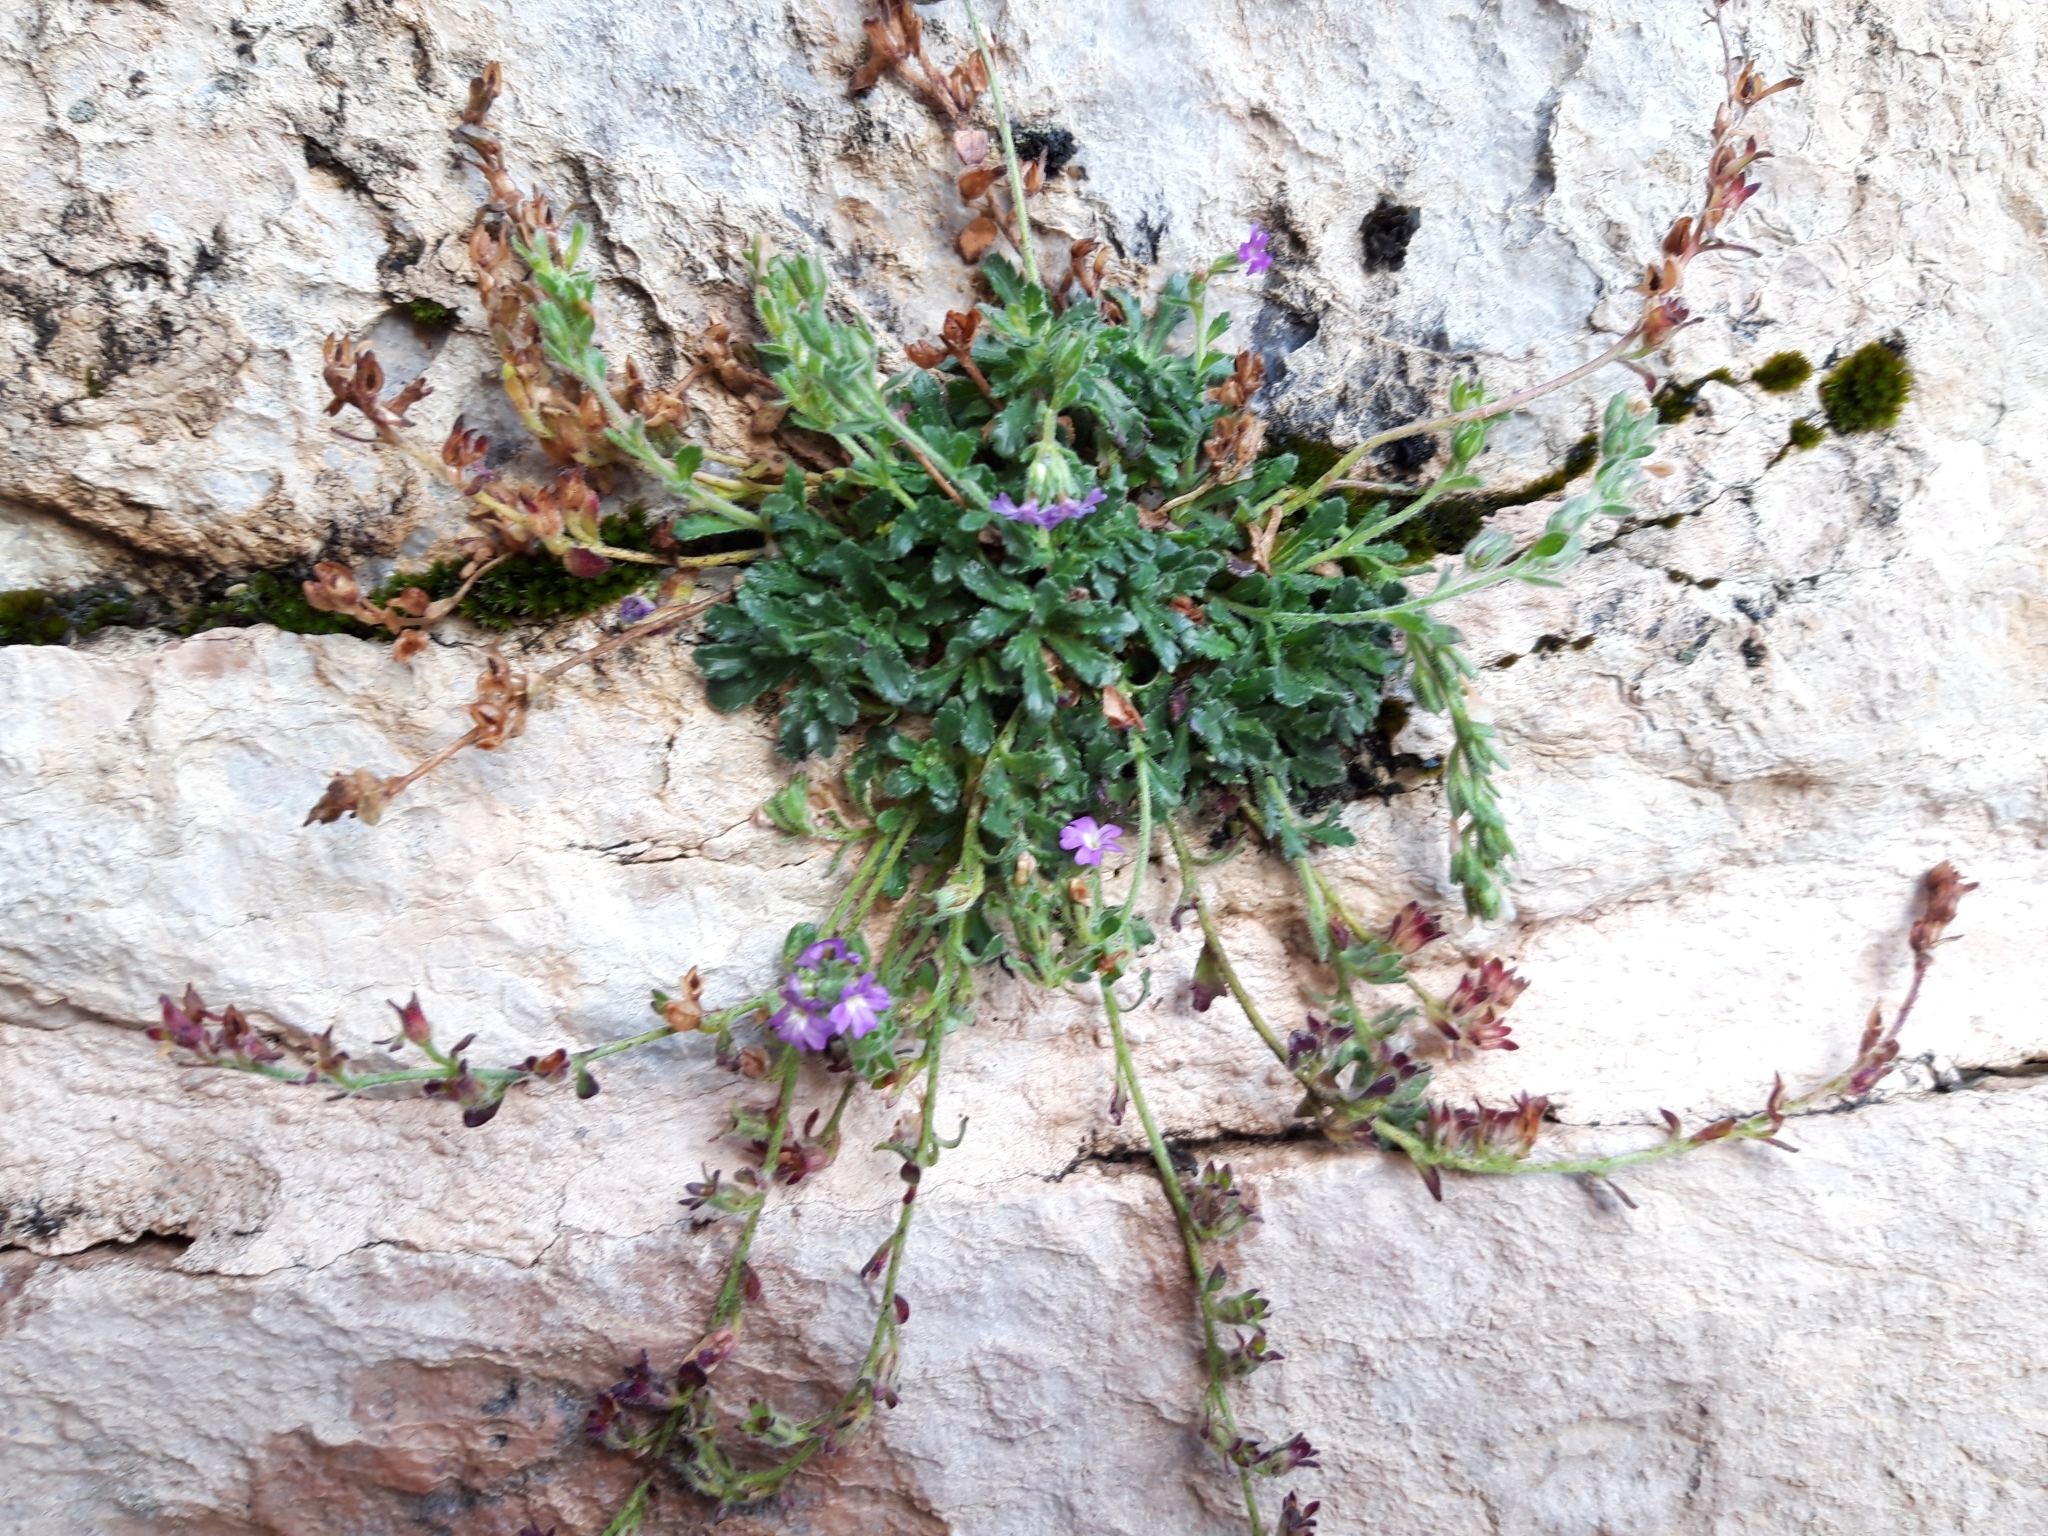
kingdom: Plantae
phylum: Tracheophyta
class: Magnoliopsida
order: Lamiales
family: Plantaginaceae
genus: Erinus
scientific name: Erinus alpinus
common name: Fairy foxglove
